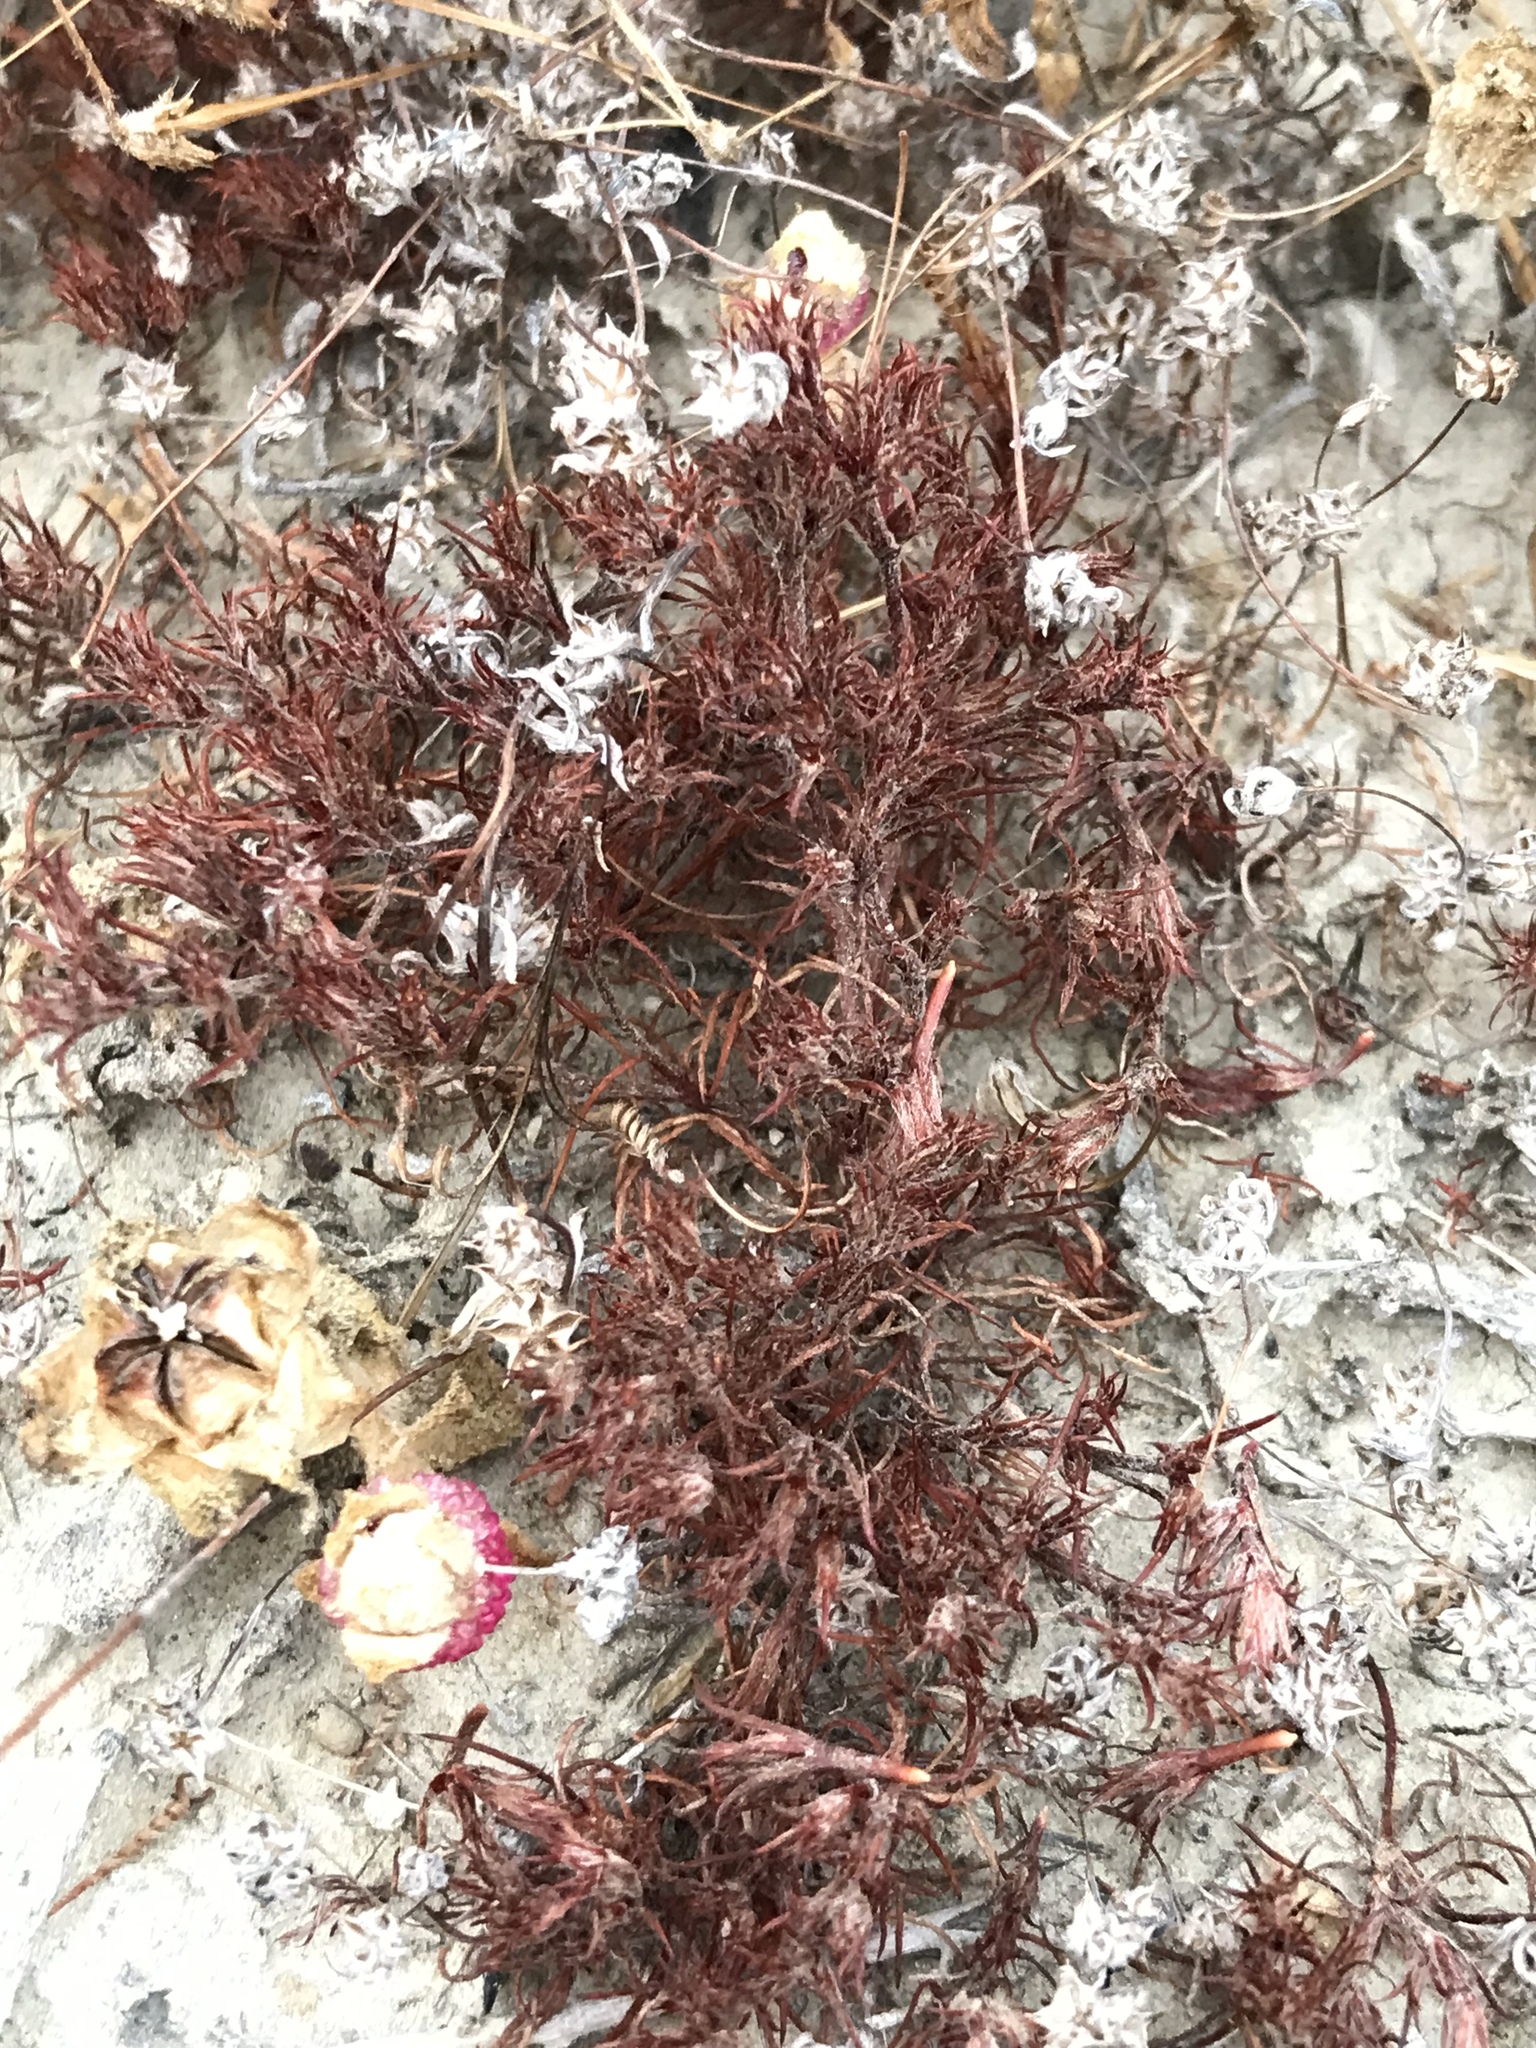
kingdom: Plantae
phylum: Tracheophyta
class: Magnoliopsida
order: Caryophyllales
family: Polygonaceae
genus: Lastarriaea
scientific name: Lastarriaea coriacea
